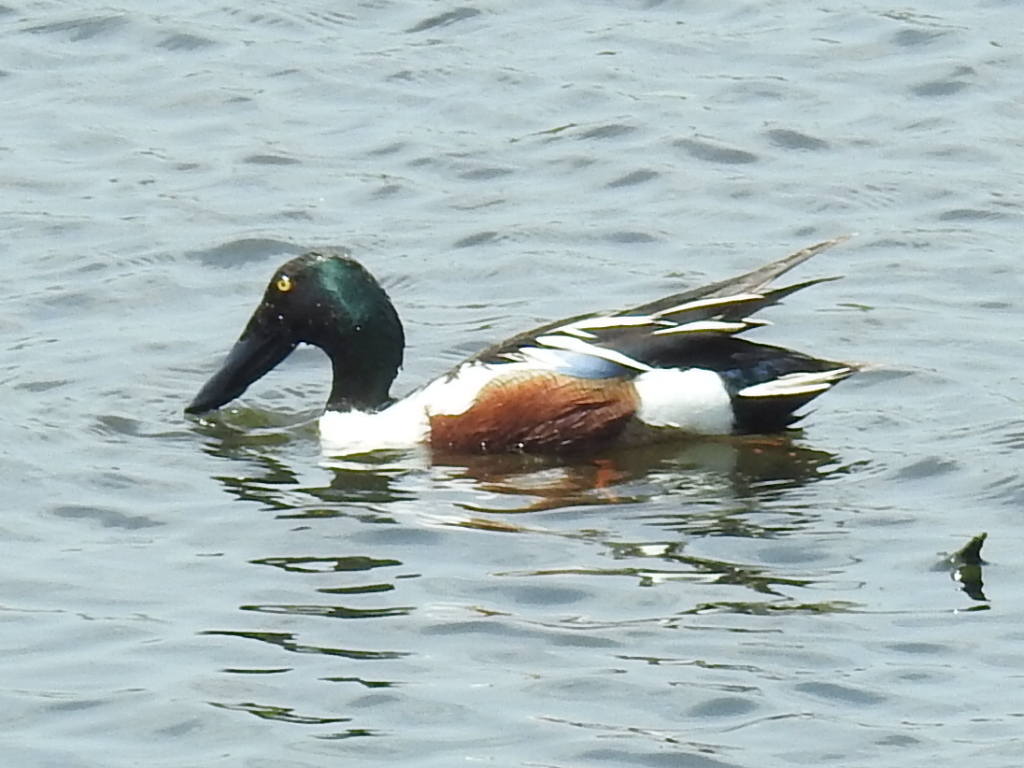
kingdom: Animalia
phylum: Chordata
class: Aves
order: Anseriformes
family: Anatidae
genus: Spatula
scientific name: Spatula clypeata
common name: Northern shoveler
